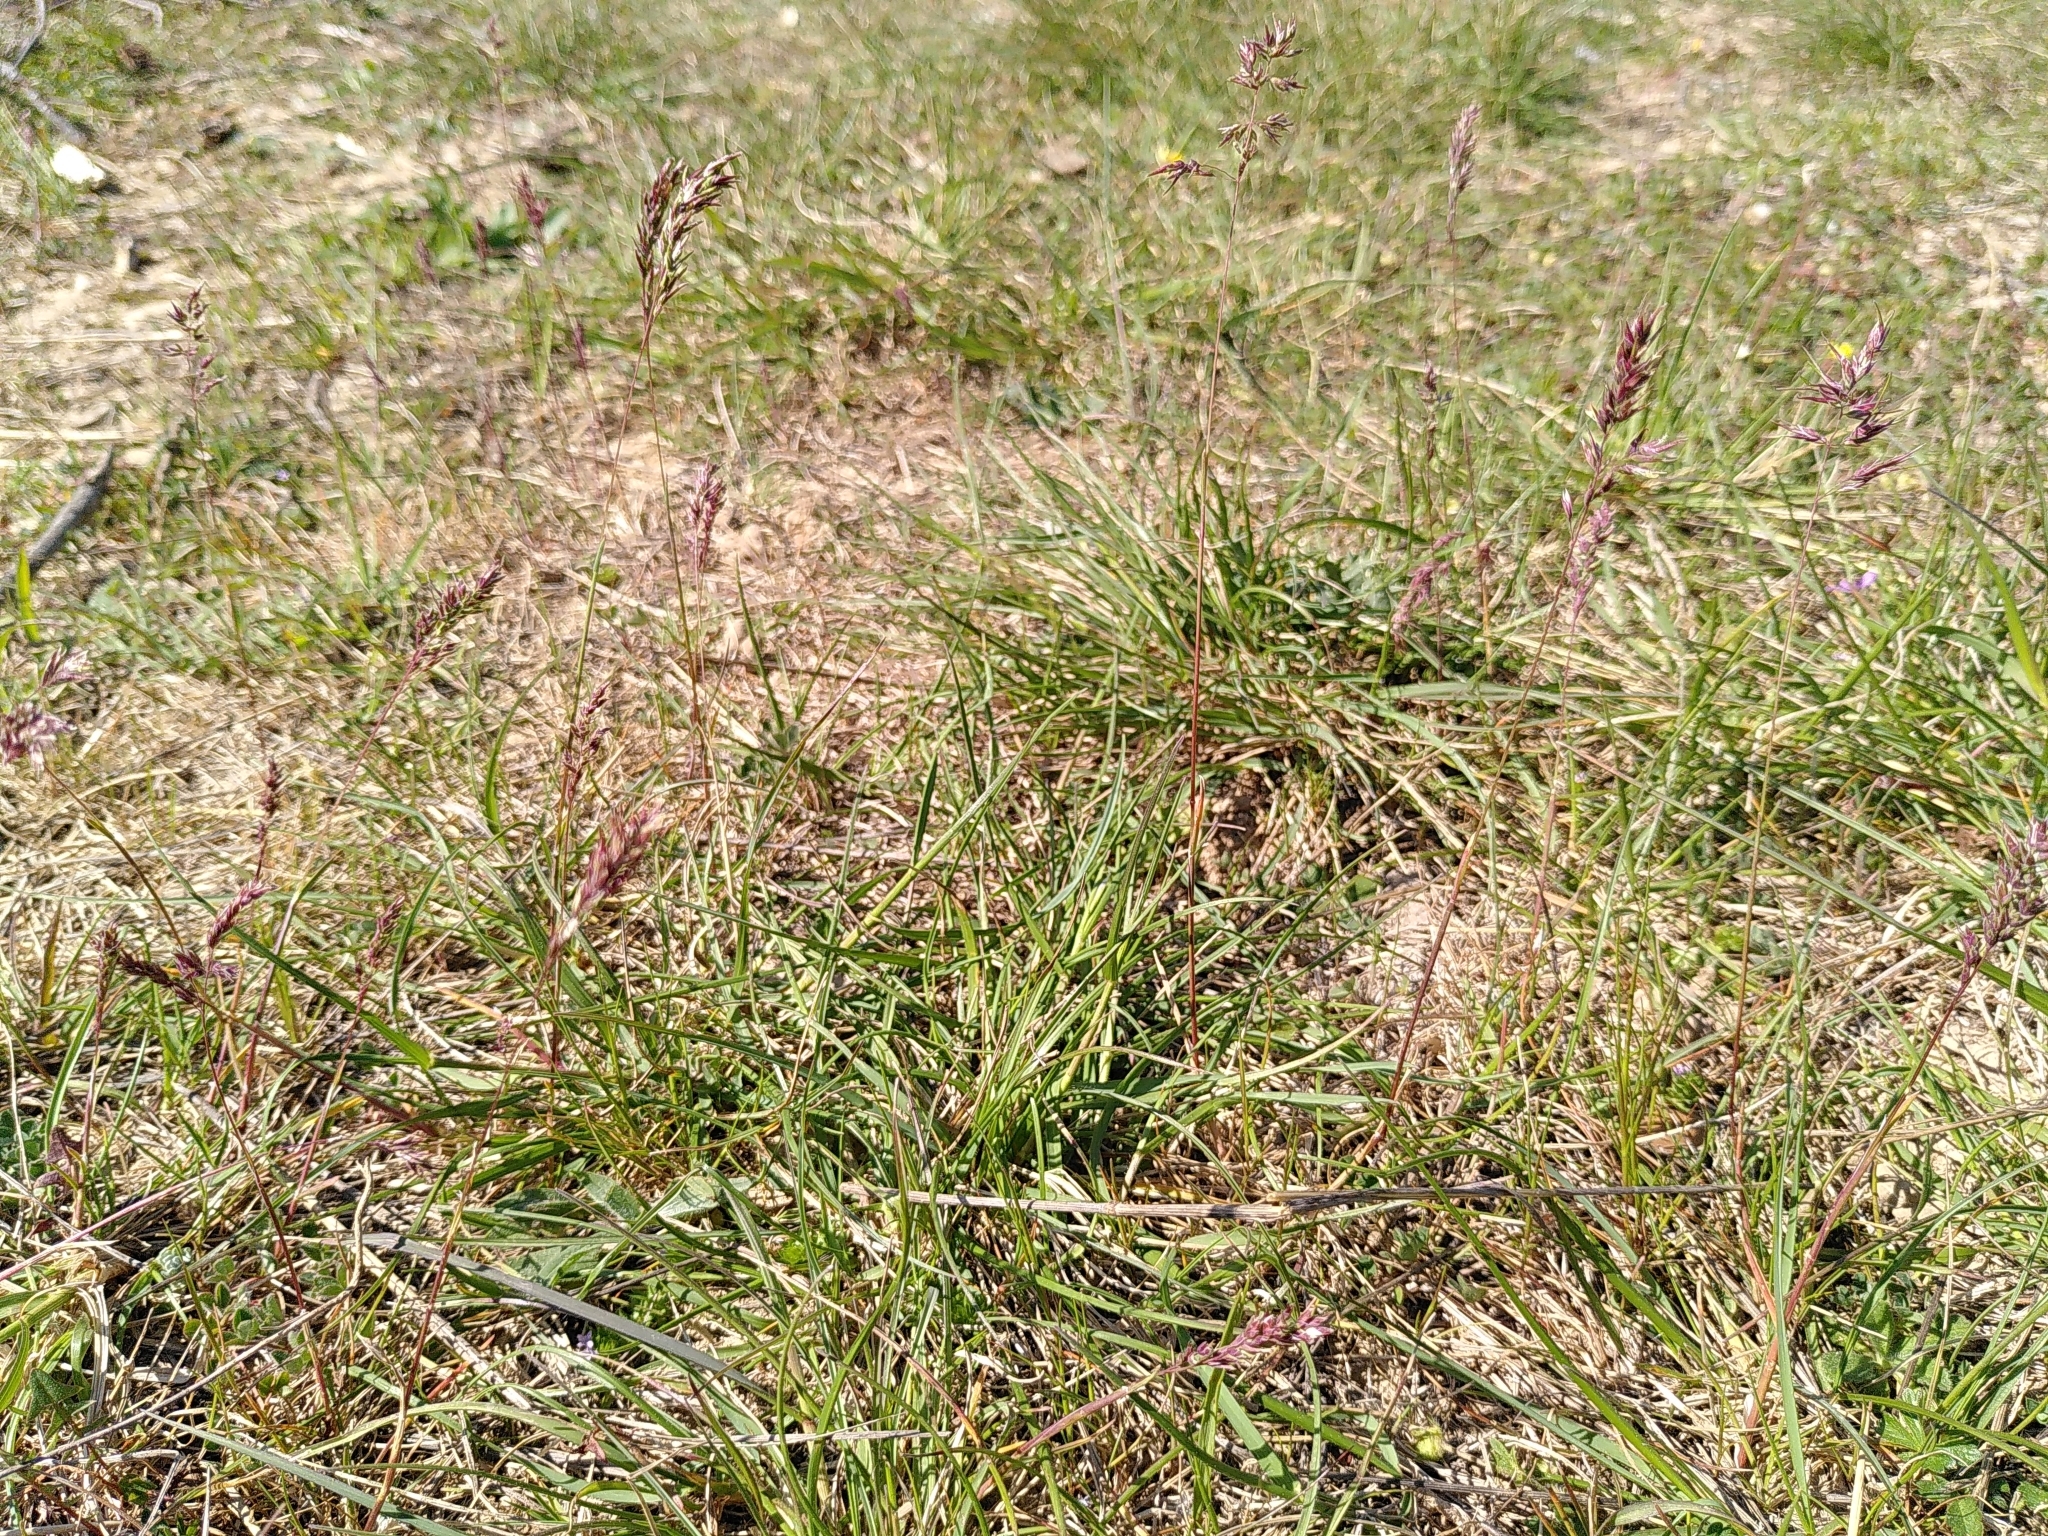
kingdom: Plantae
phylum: Tracheophyta
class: Liliopsida
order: Poales
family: Poaceae
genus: Poa
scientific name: Poa bulbosa
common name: Bulbous bluegrass
